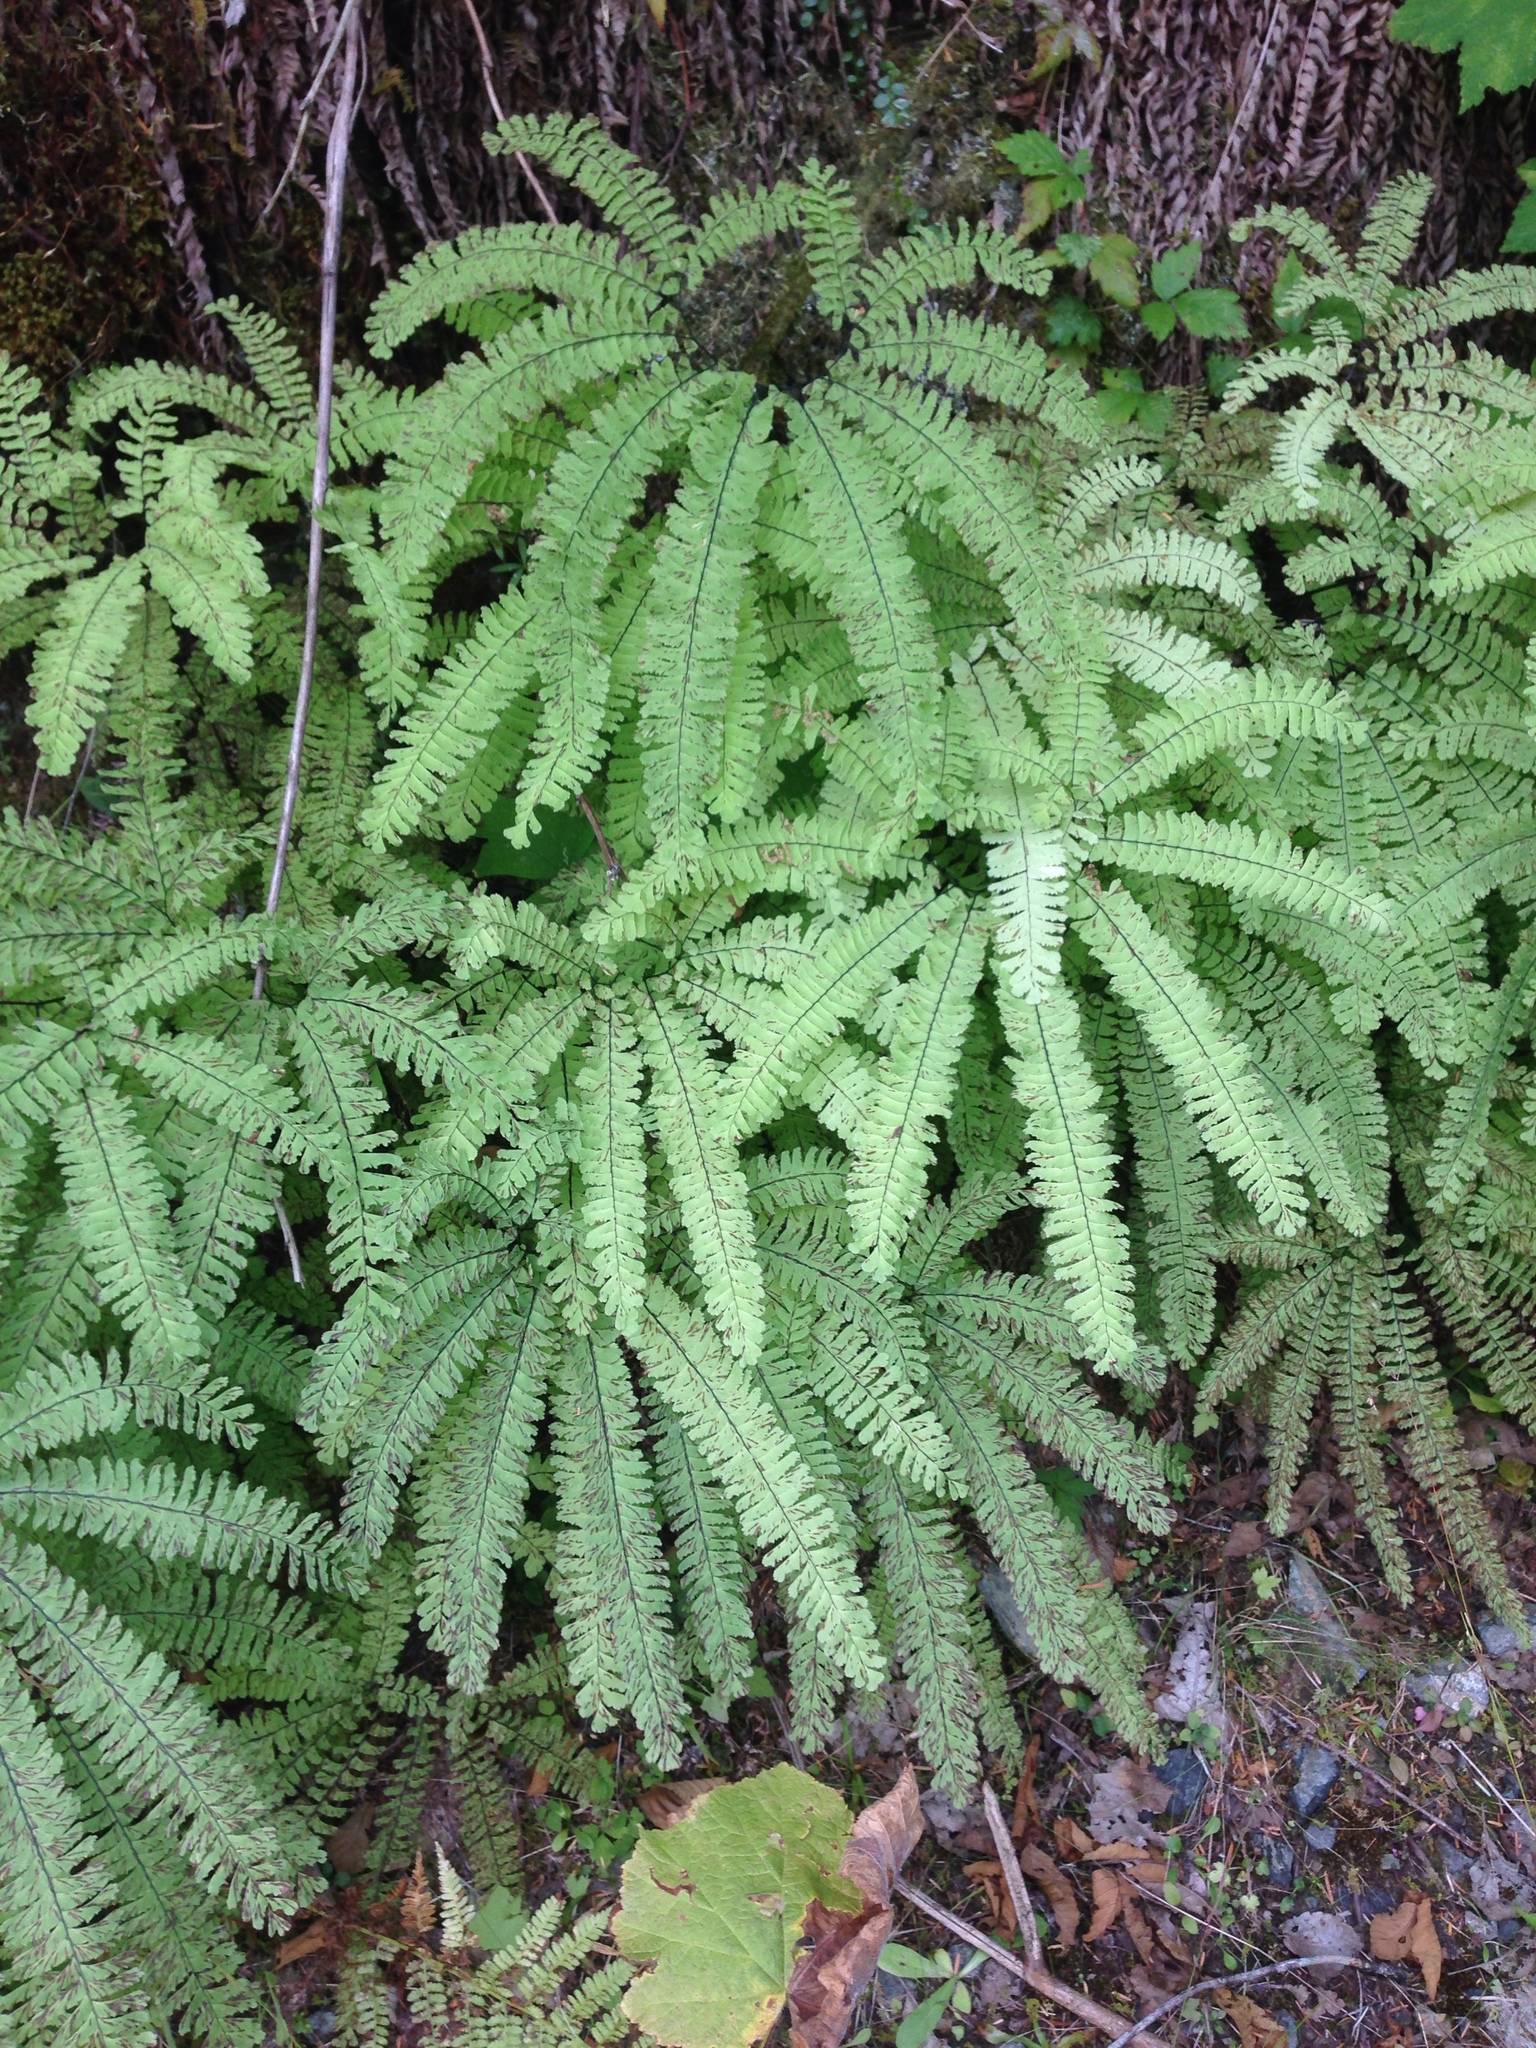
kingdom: Plantae
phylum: Tracheophyta
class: Polypodiopsida
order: Polypodiales
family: Pteridaceae
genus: Adiantum
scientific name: Adiantum aleuticum
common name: Aleutian maidenhair fern
